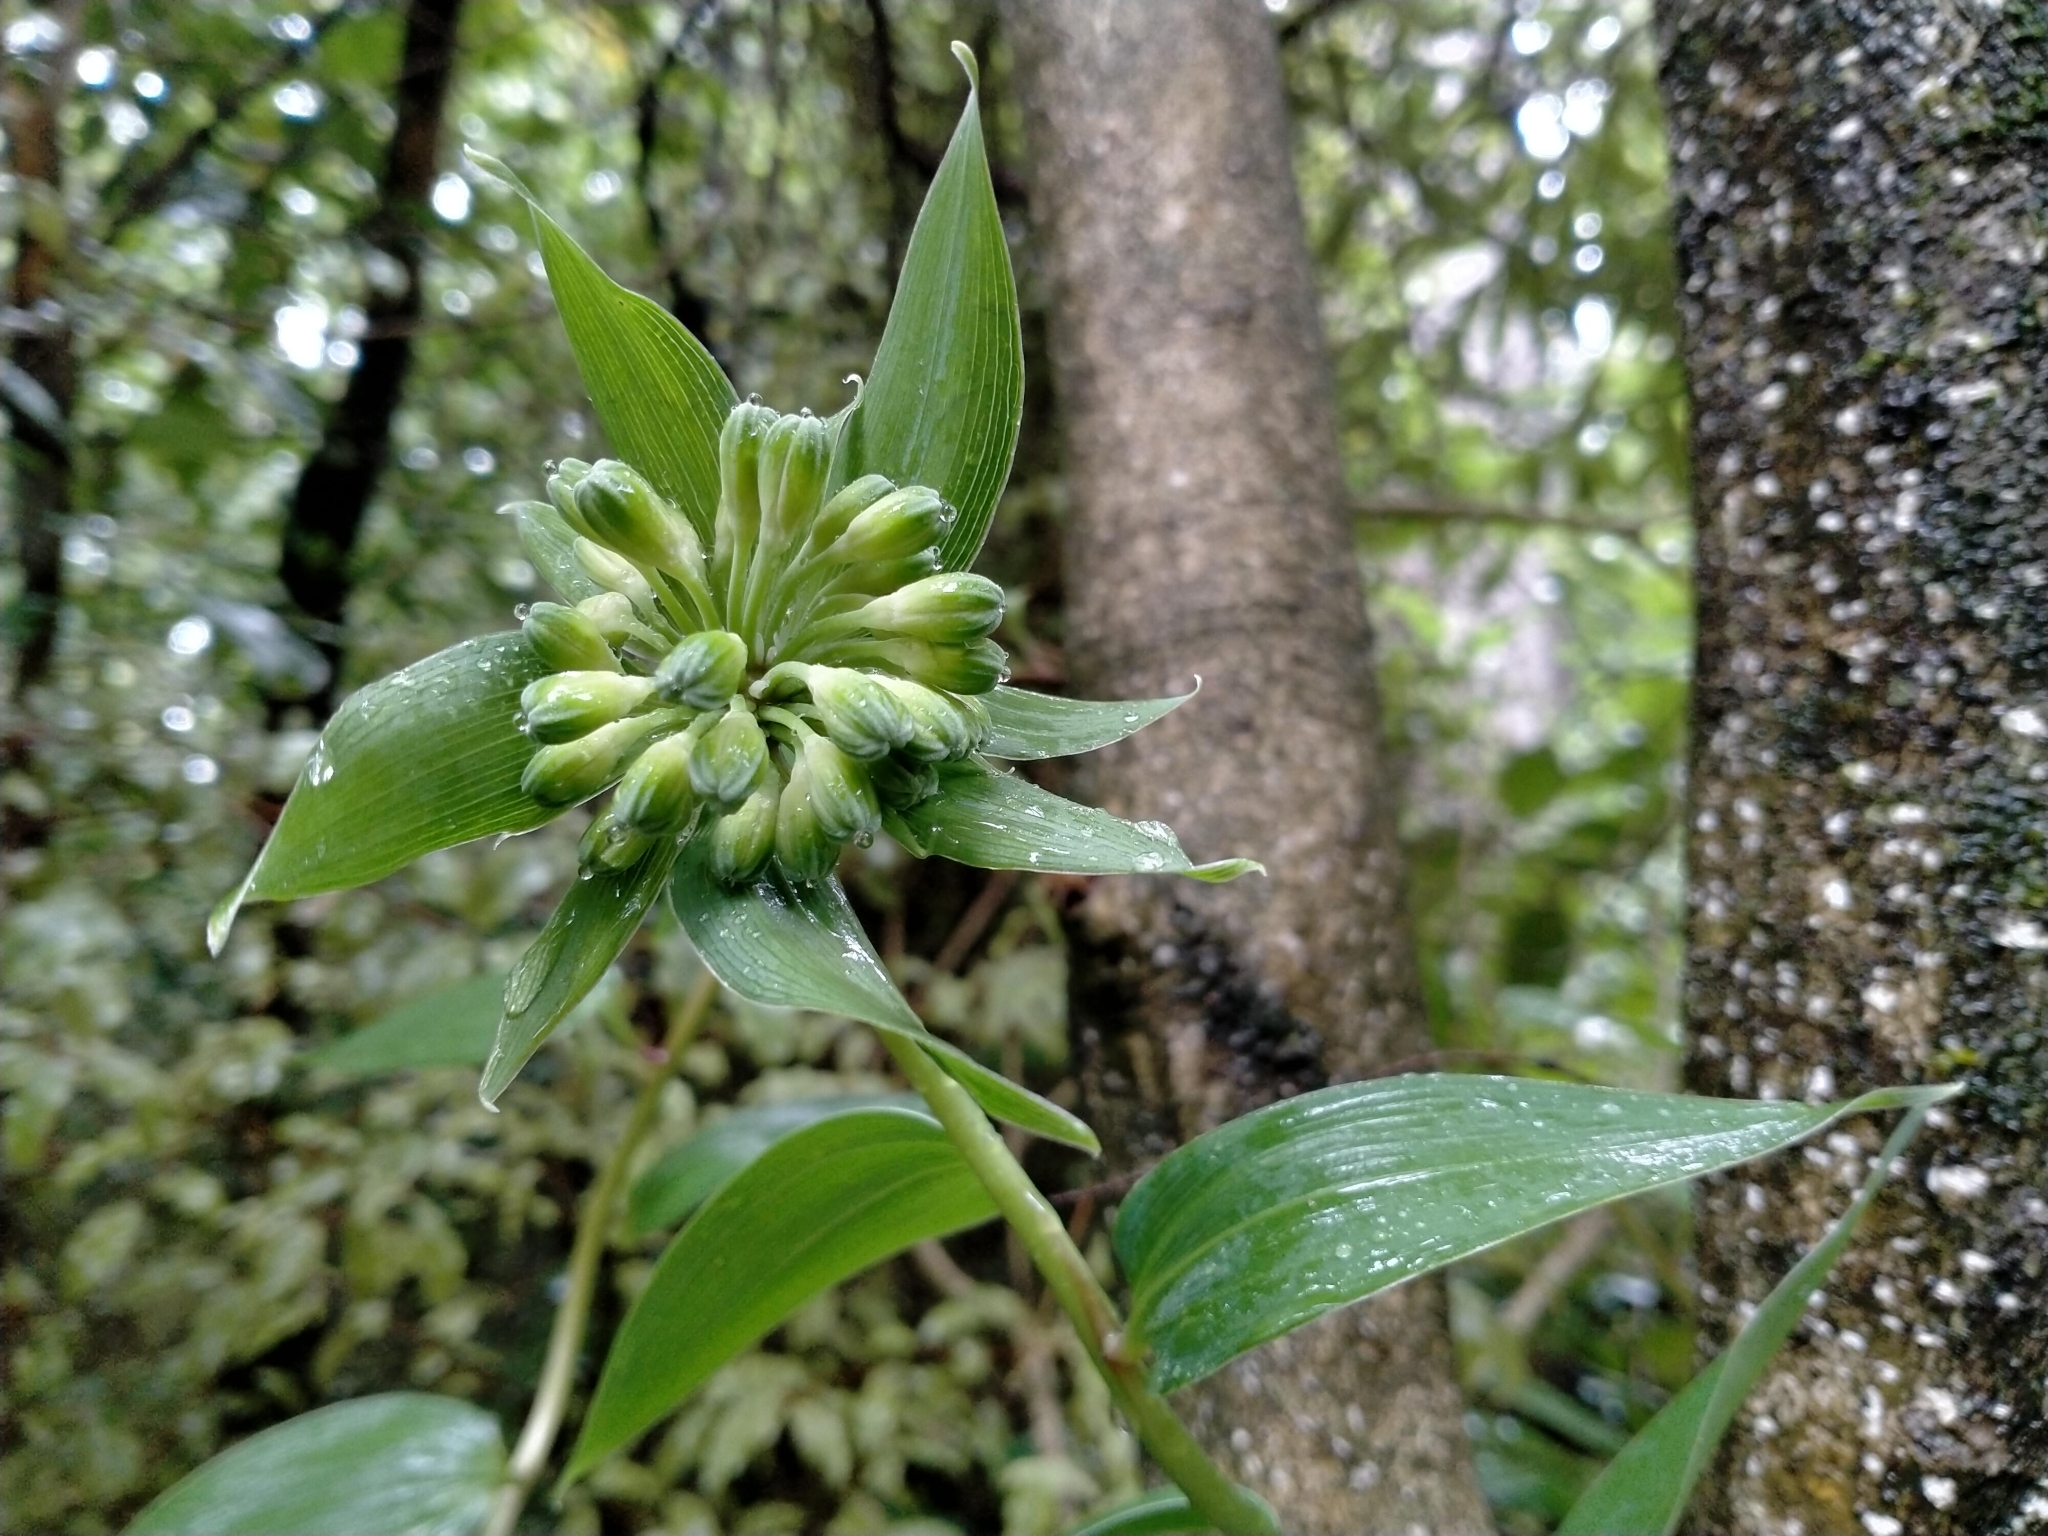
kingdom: Plantae
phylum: Tracheophyta
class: Liliopsida
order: Liliales
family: Alstroemeriaceae
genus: Bomarea
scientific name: Bomarea multiflora
